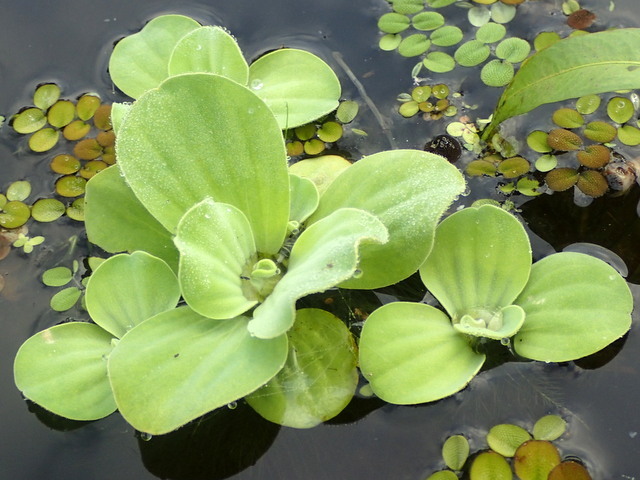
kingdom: Plantae
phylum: Tracheophyta
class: Liliopsida
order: Alismatales
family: Araceae
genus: Pistia
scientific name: Pistia stratiotes
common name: Water lettuce
